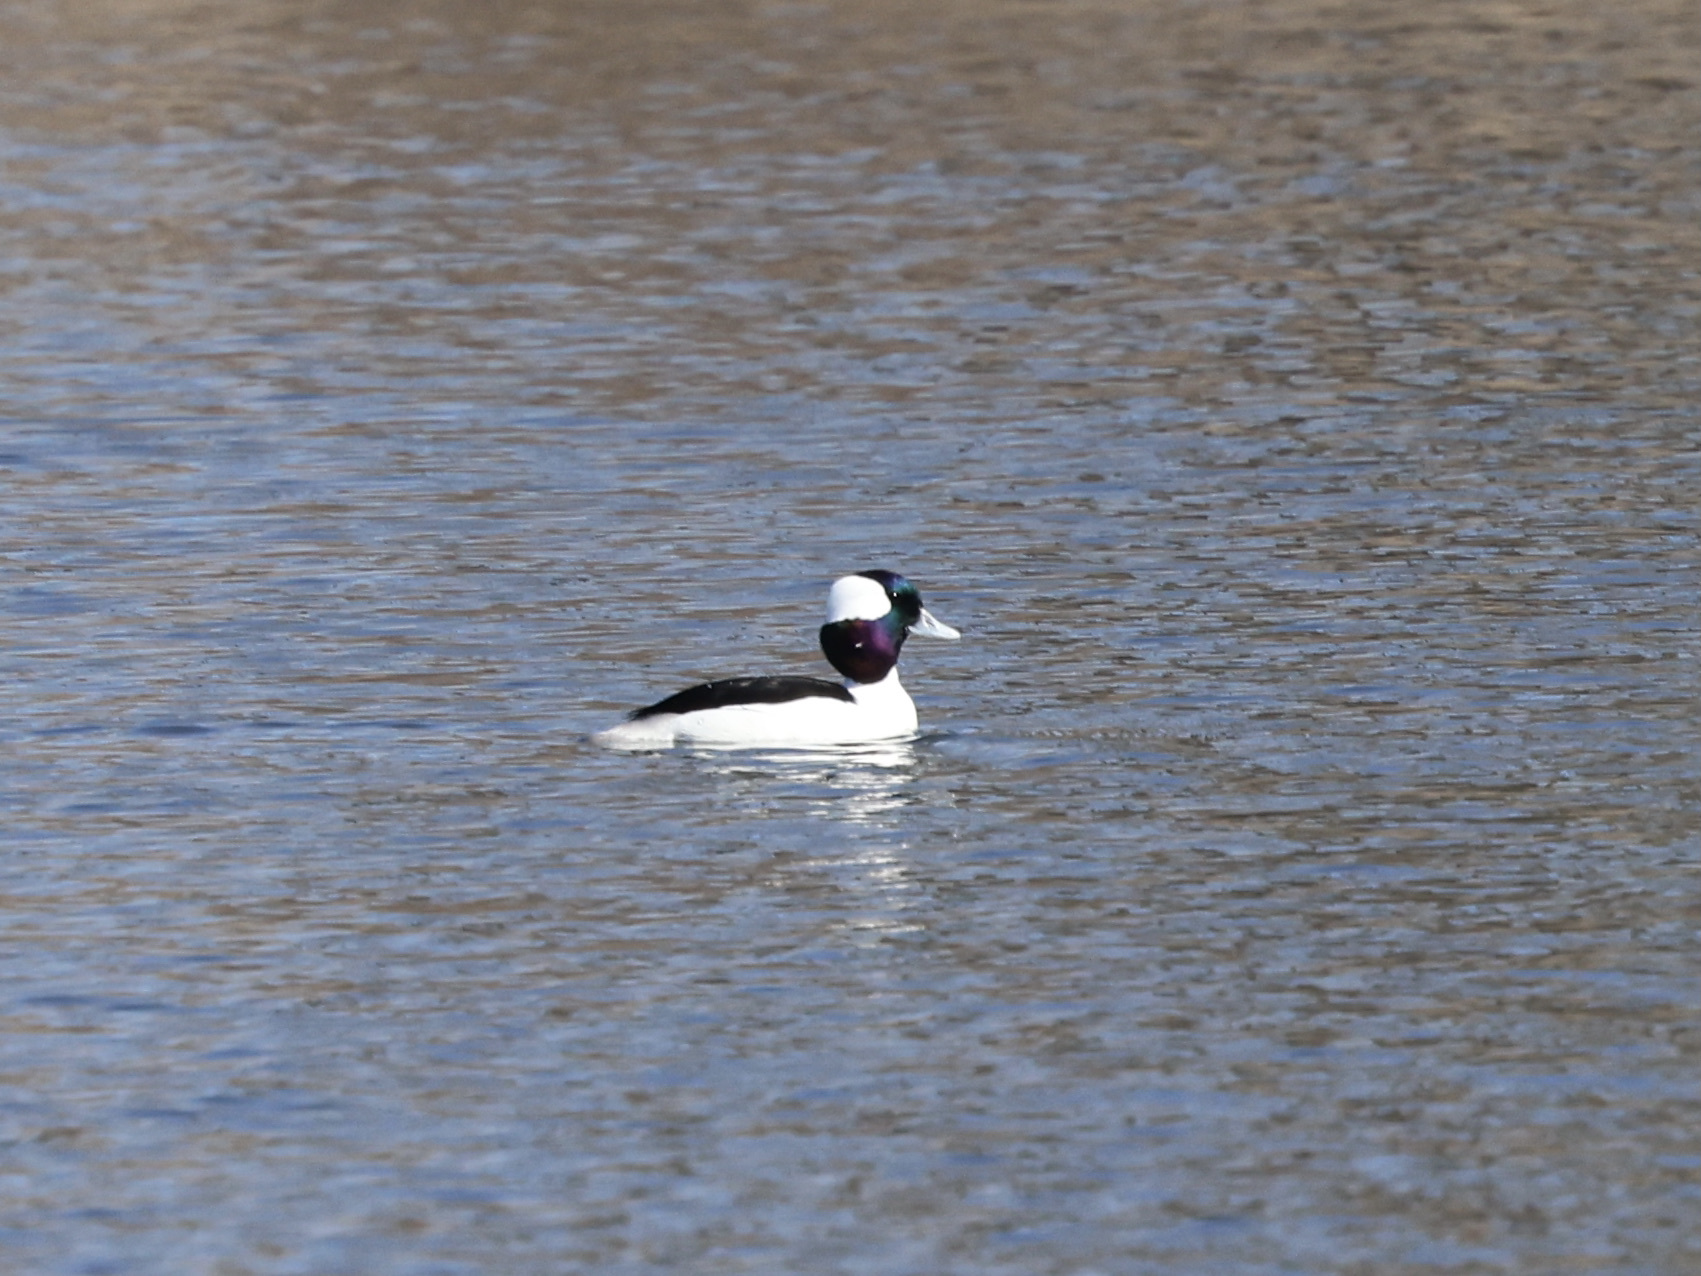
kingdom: Animalia
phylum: Chordata
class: Aves
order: Anseriformes
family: Anatidae
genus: Bucephala
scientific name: Bucephala albeola
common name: Bufflehead
